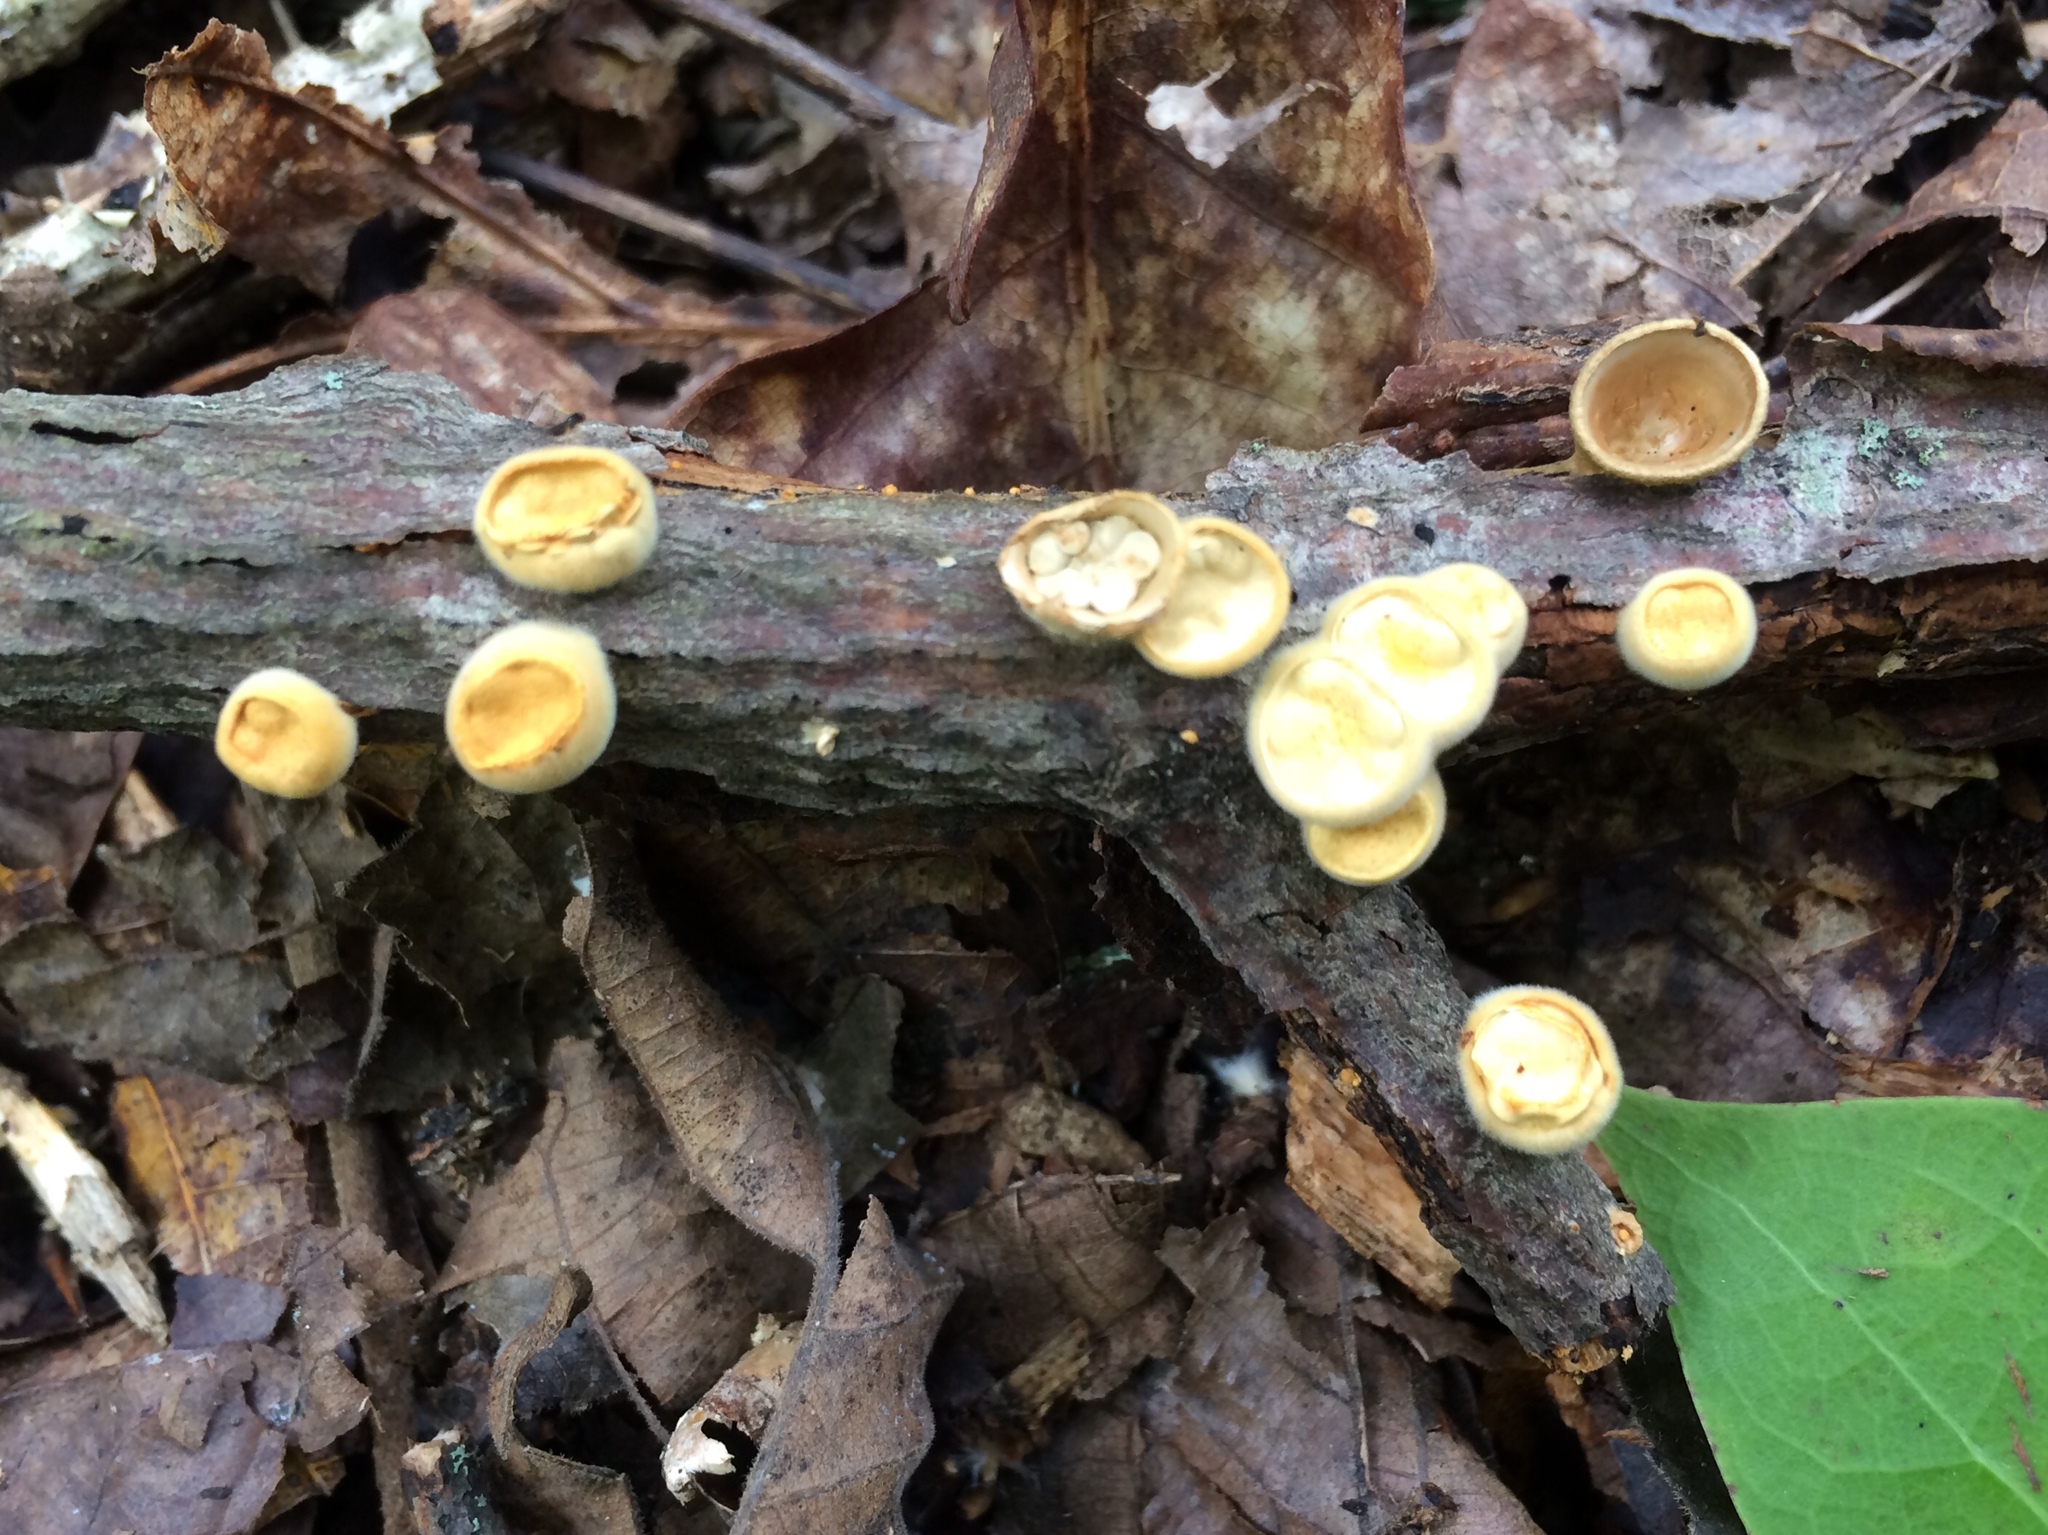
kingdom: Fungi
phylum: Basidiomycota
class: Agaricomycetes
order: Agaricales
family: Nidulariaceae
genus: Crucibulum
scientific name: Crucibulum laeve
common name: Common bird's nest
